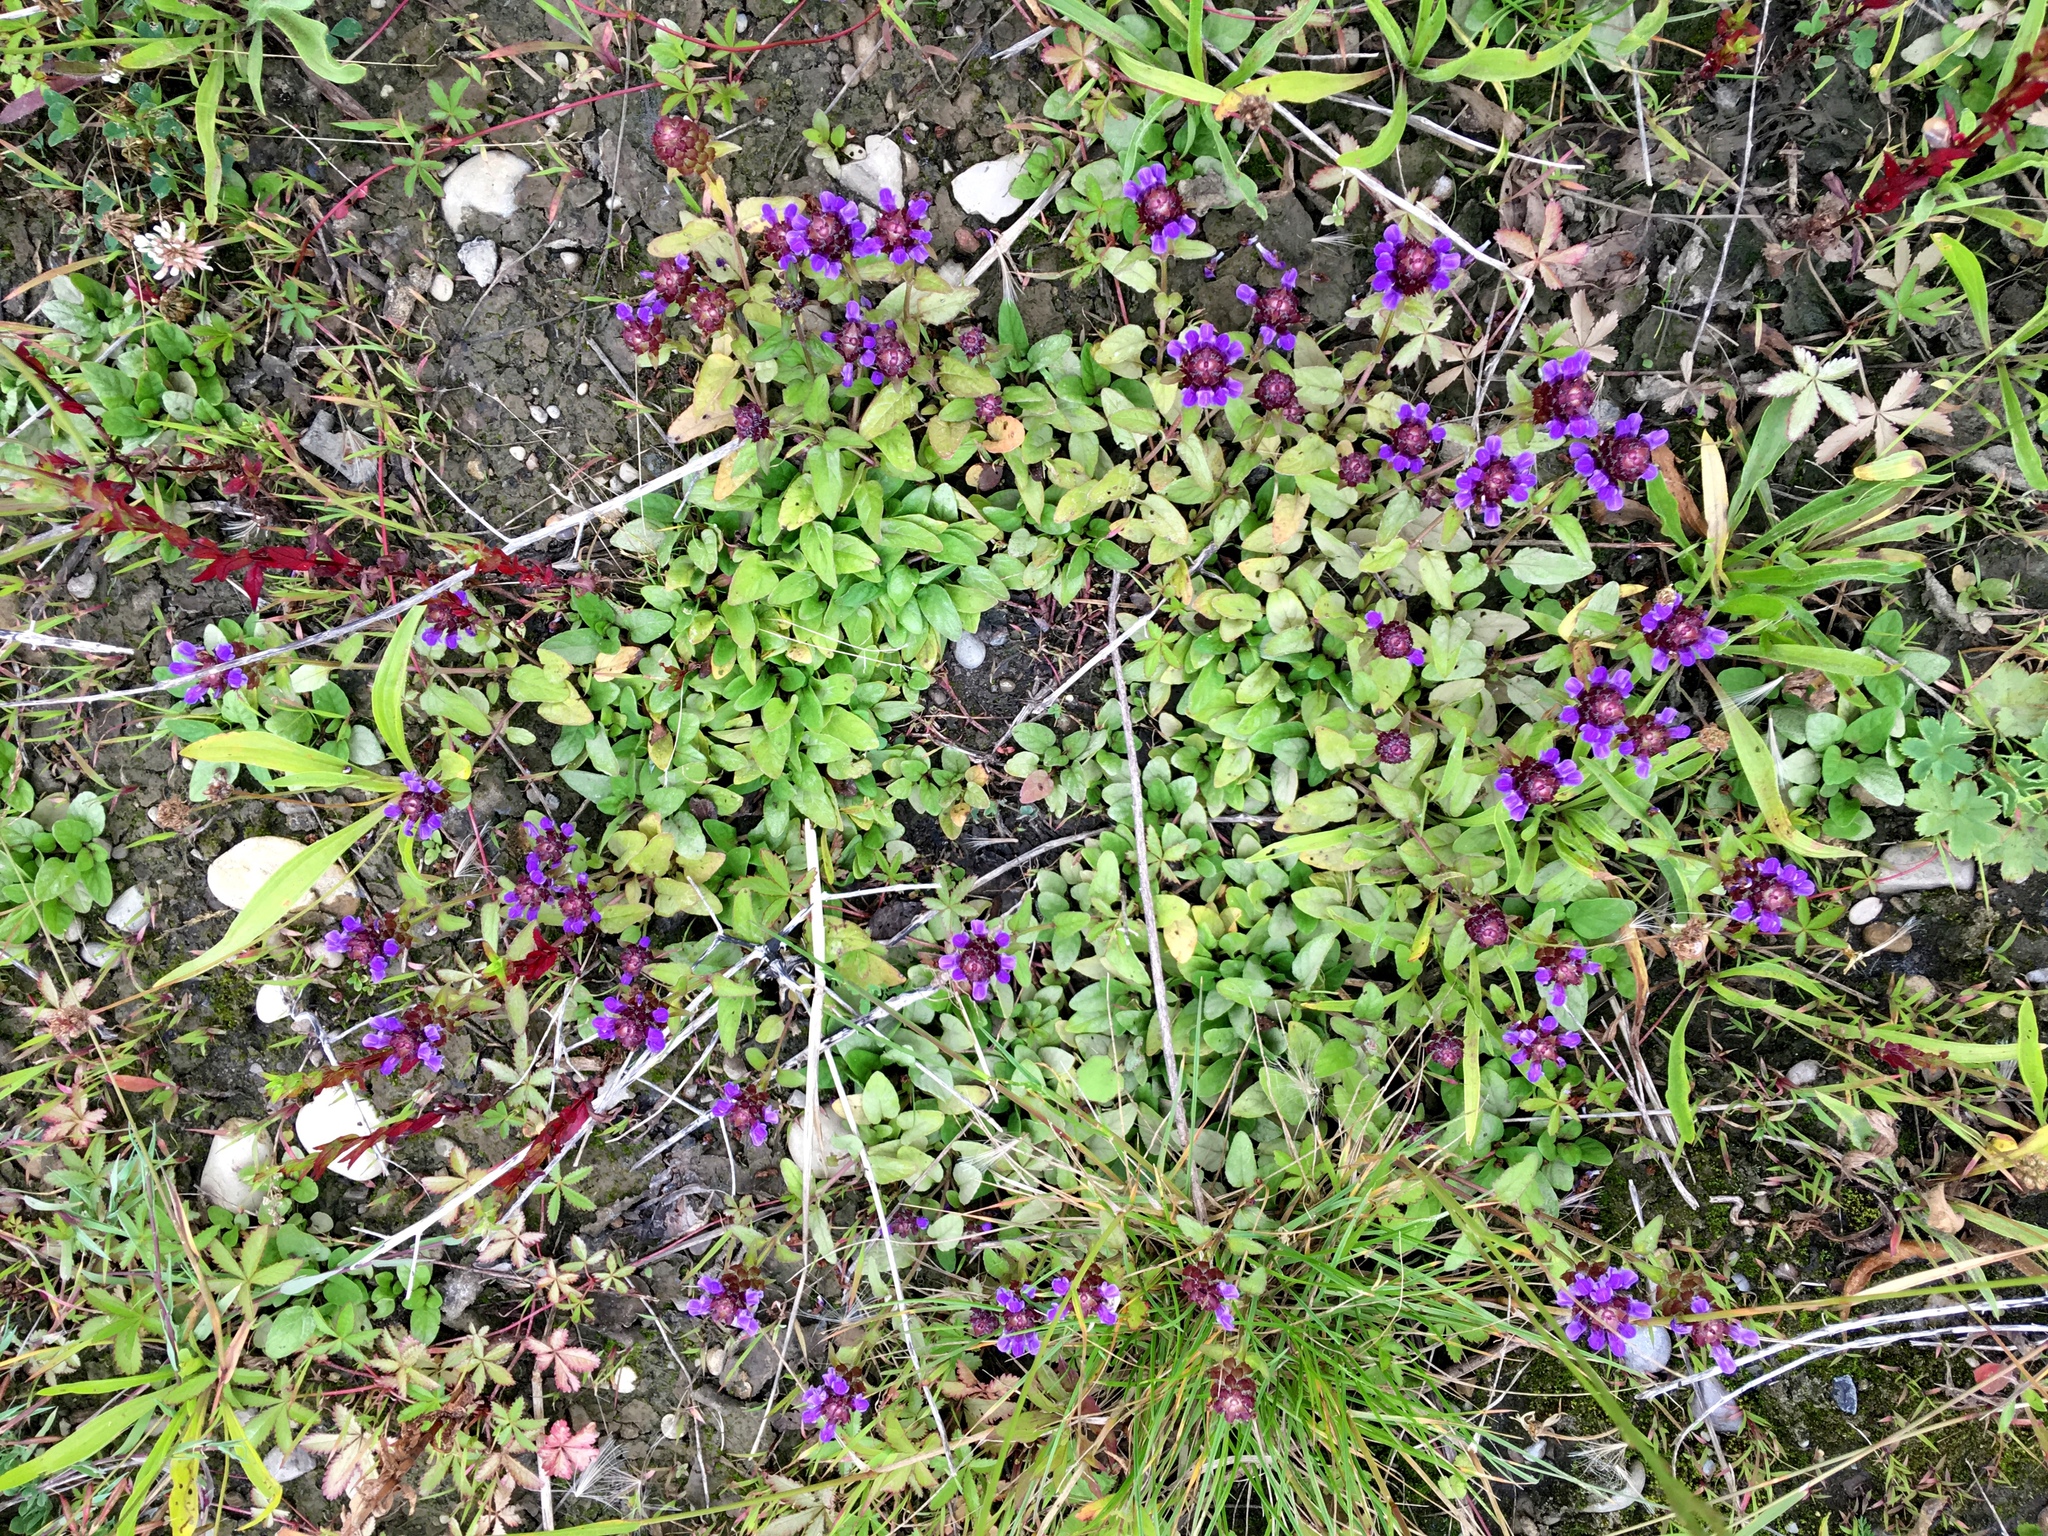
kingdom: Plantae
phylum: Tracheophyta
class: Magnoliopsida
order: Lamiales
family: Lamiaceae
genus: Prunella
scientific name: Prunella vulgaris
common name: Heal-all
